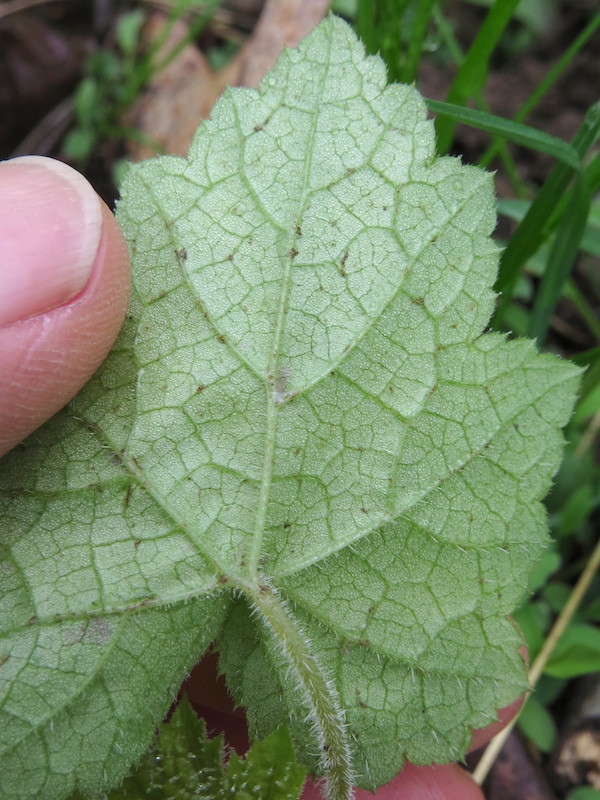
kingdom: Plantae
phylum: Tracheophyta
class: Magnoliopsida
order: Saxifragales
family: Saxifragaceae
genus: Tiarella
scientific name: Tiarella stolonifera
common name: Stoloniferous foamflower
